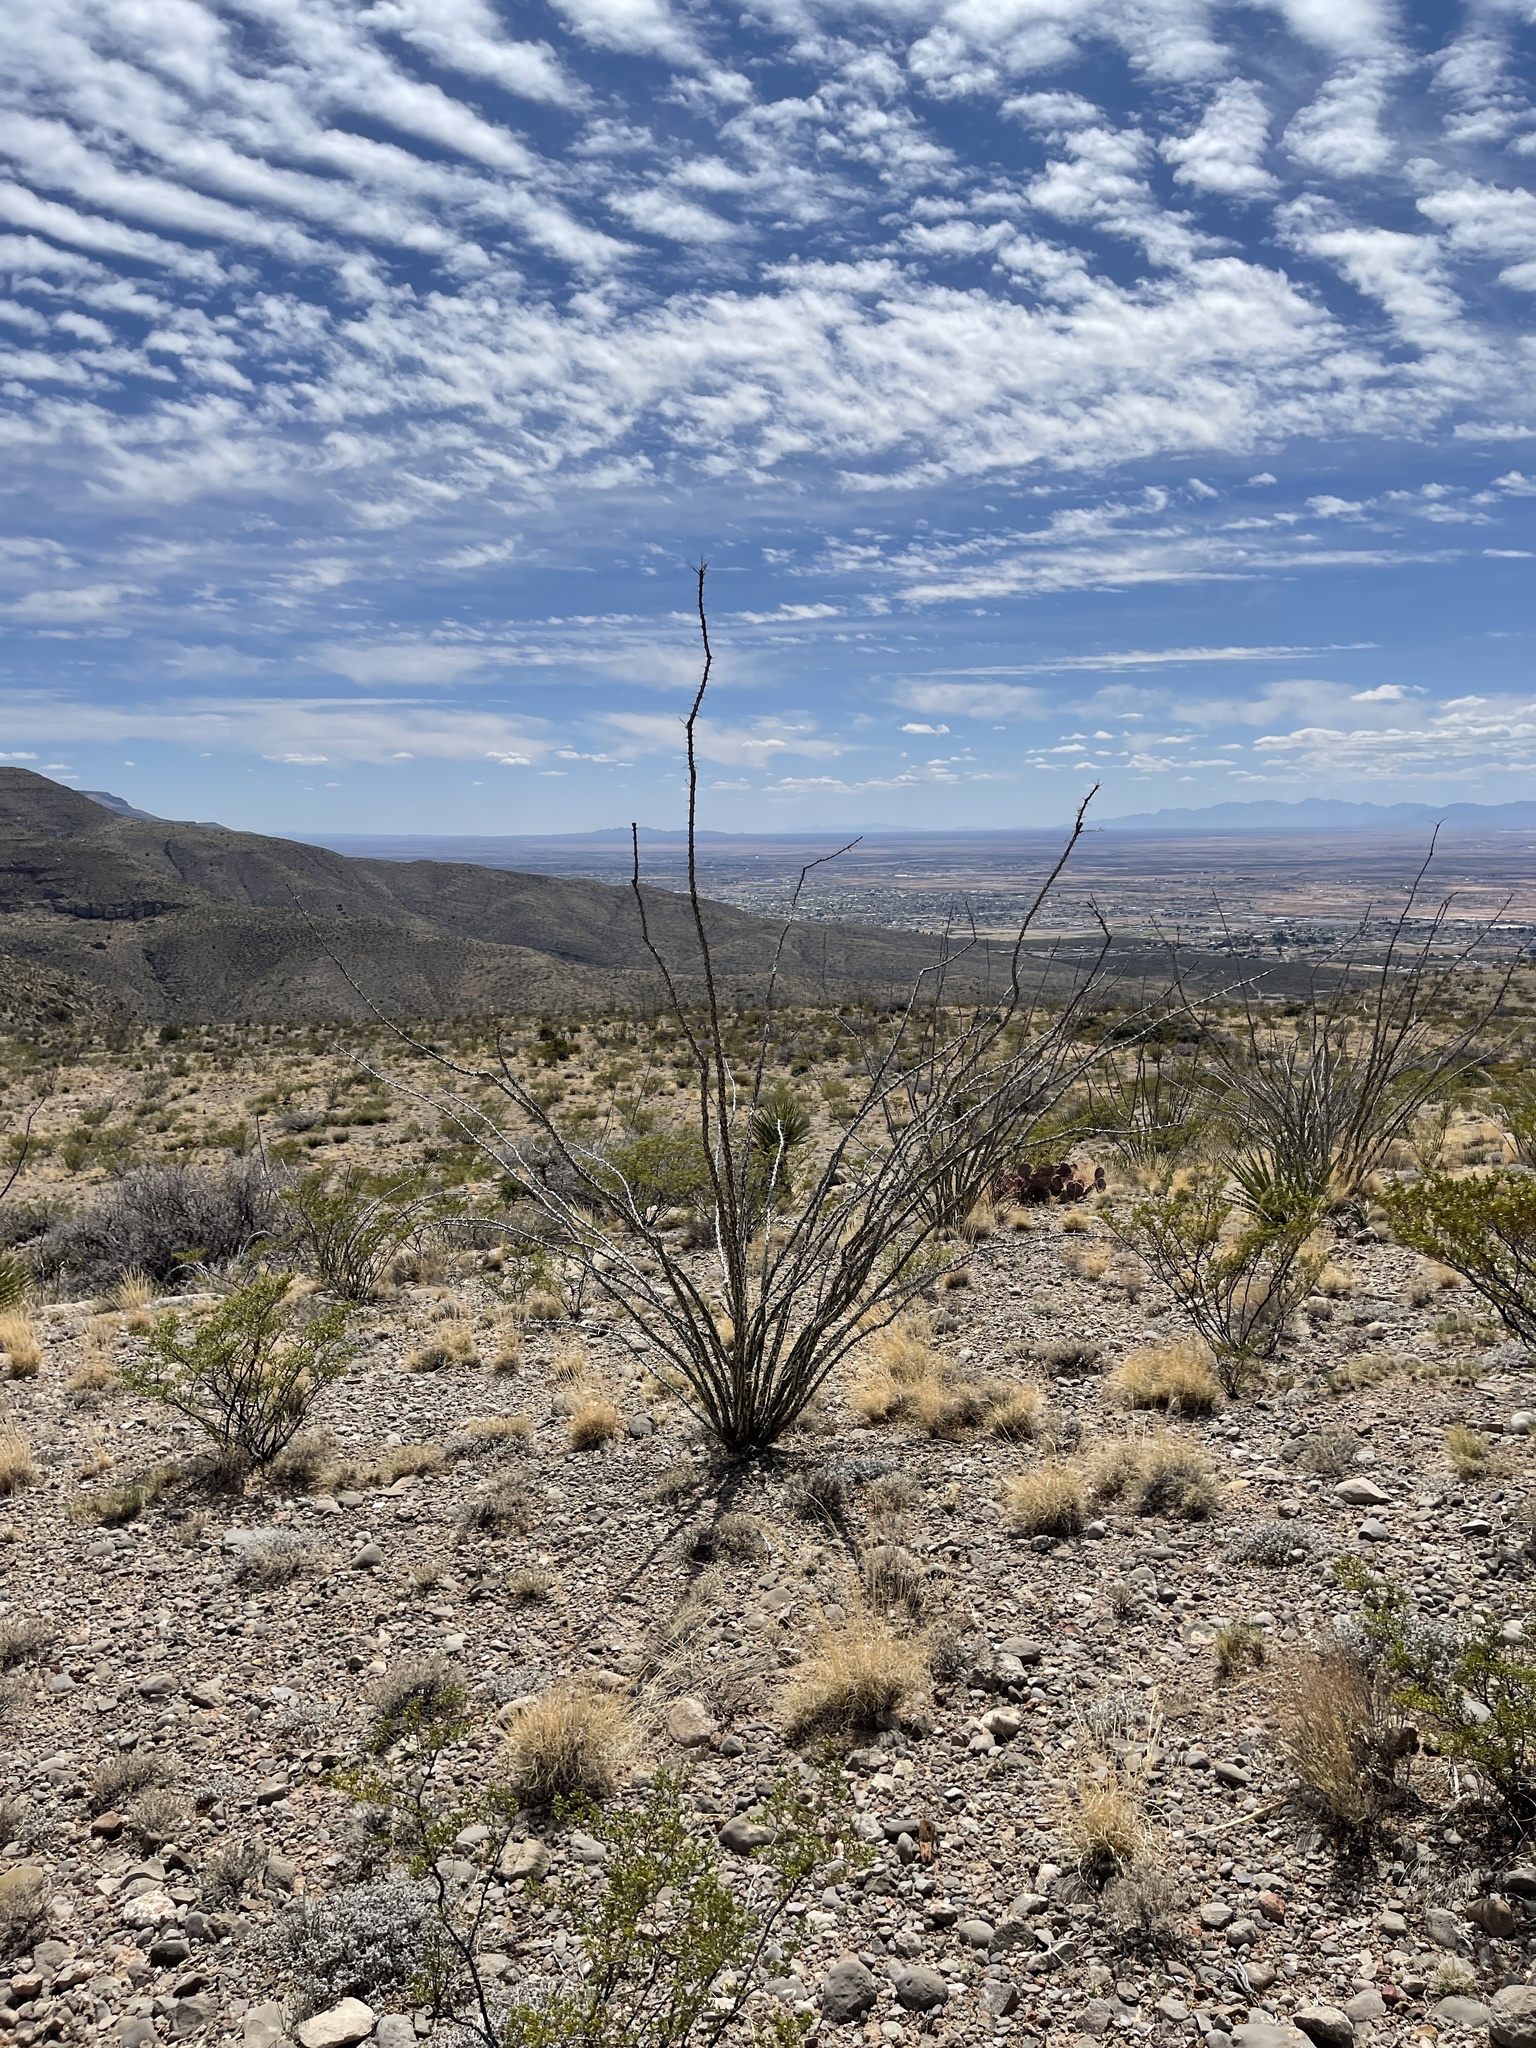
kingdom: Plantae
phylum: Tracheophyta
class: Magnoliopsida
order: Ericales
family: Fouquieriaceae
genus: Fouquieria
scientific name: Fouquieria splendens
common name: Vine-cactus
